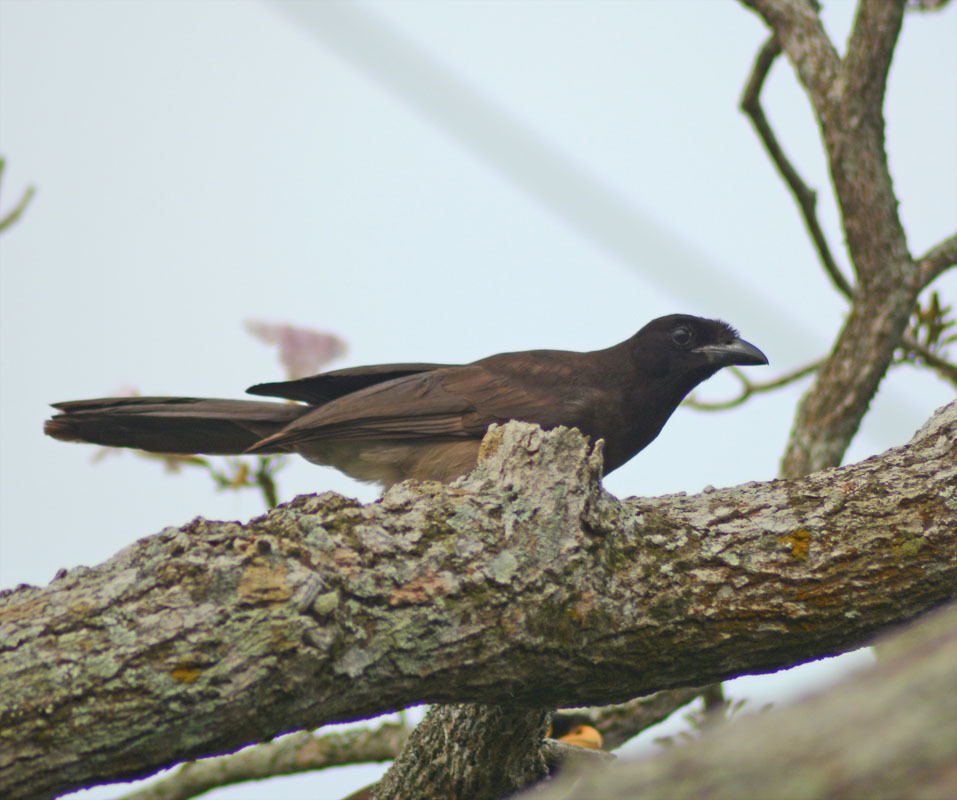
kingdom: Animalia
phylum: Chordata
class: Aves
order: Passeriformes
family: Corvidae
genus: Psilorhinus
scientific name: Psilorhinus morio
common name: Brown jay
